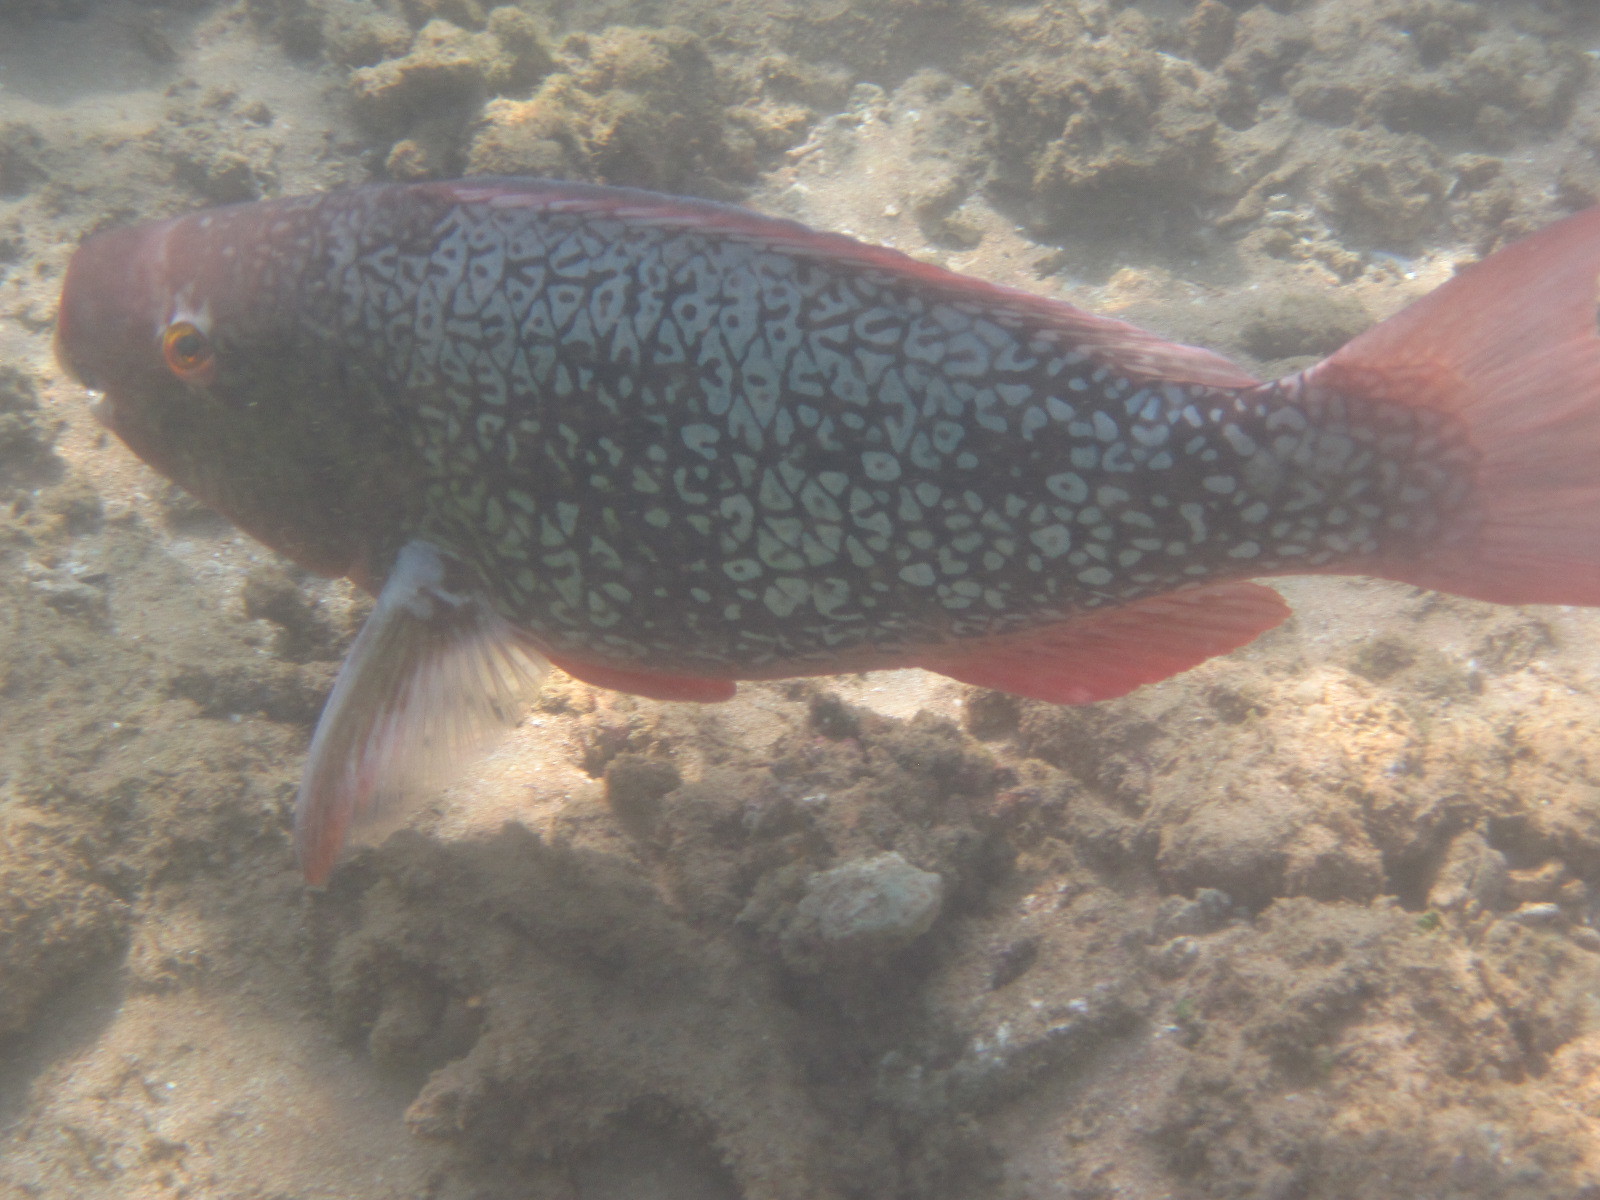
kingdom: Animalia
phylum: Chordata
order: Perciformes
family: Scaridae
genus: Scarus
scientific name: Scarus rubroviolaceus
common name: Ember parrotfish
